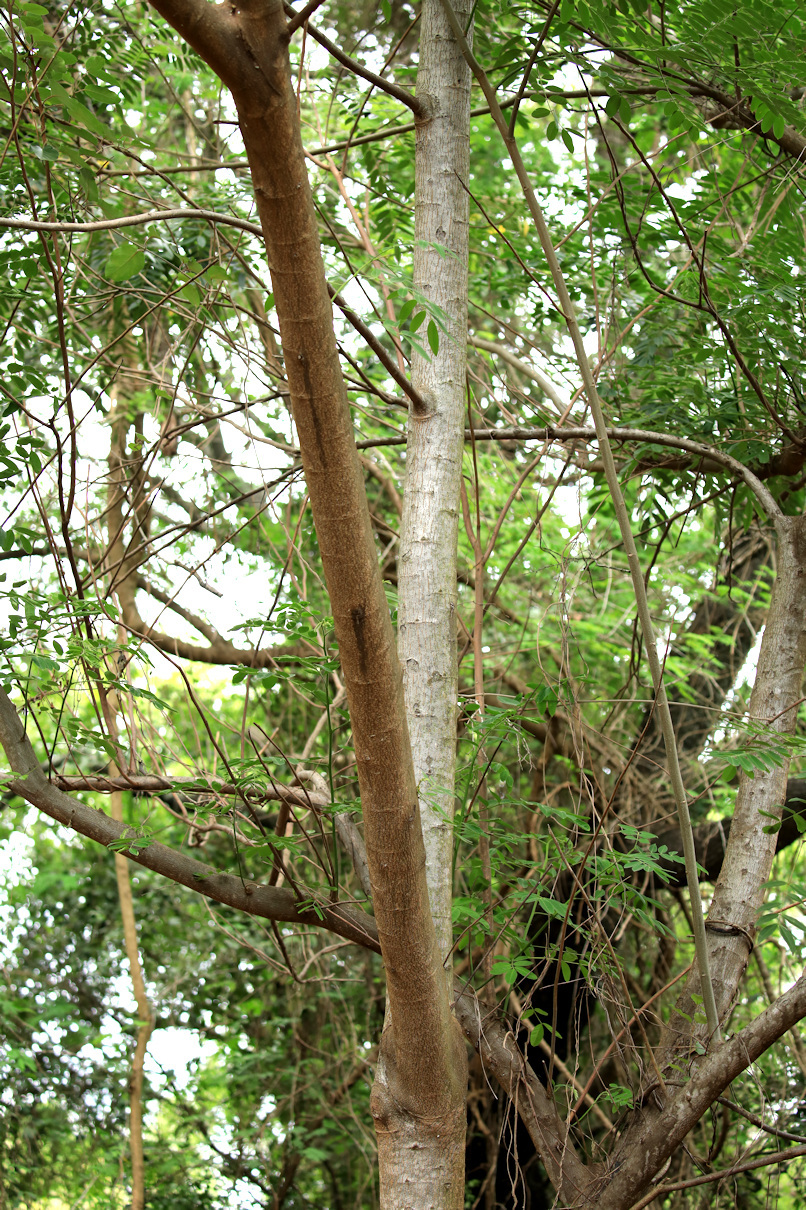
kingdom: Plantae
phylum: Tracheophyta
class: Magnoliopsida
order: Fabales
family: Fabaceae
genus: Senna
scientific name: Senna spectabilis
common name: Casia amarilla
